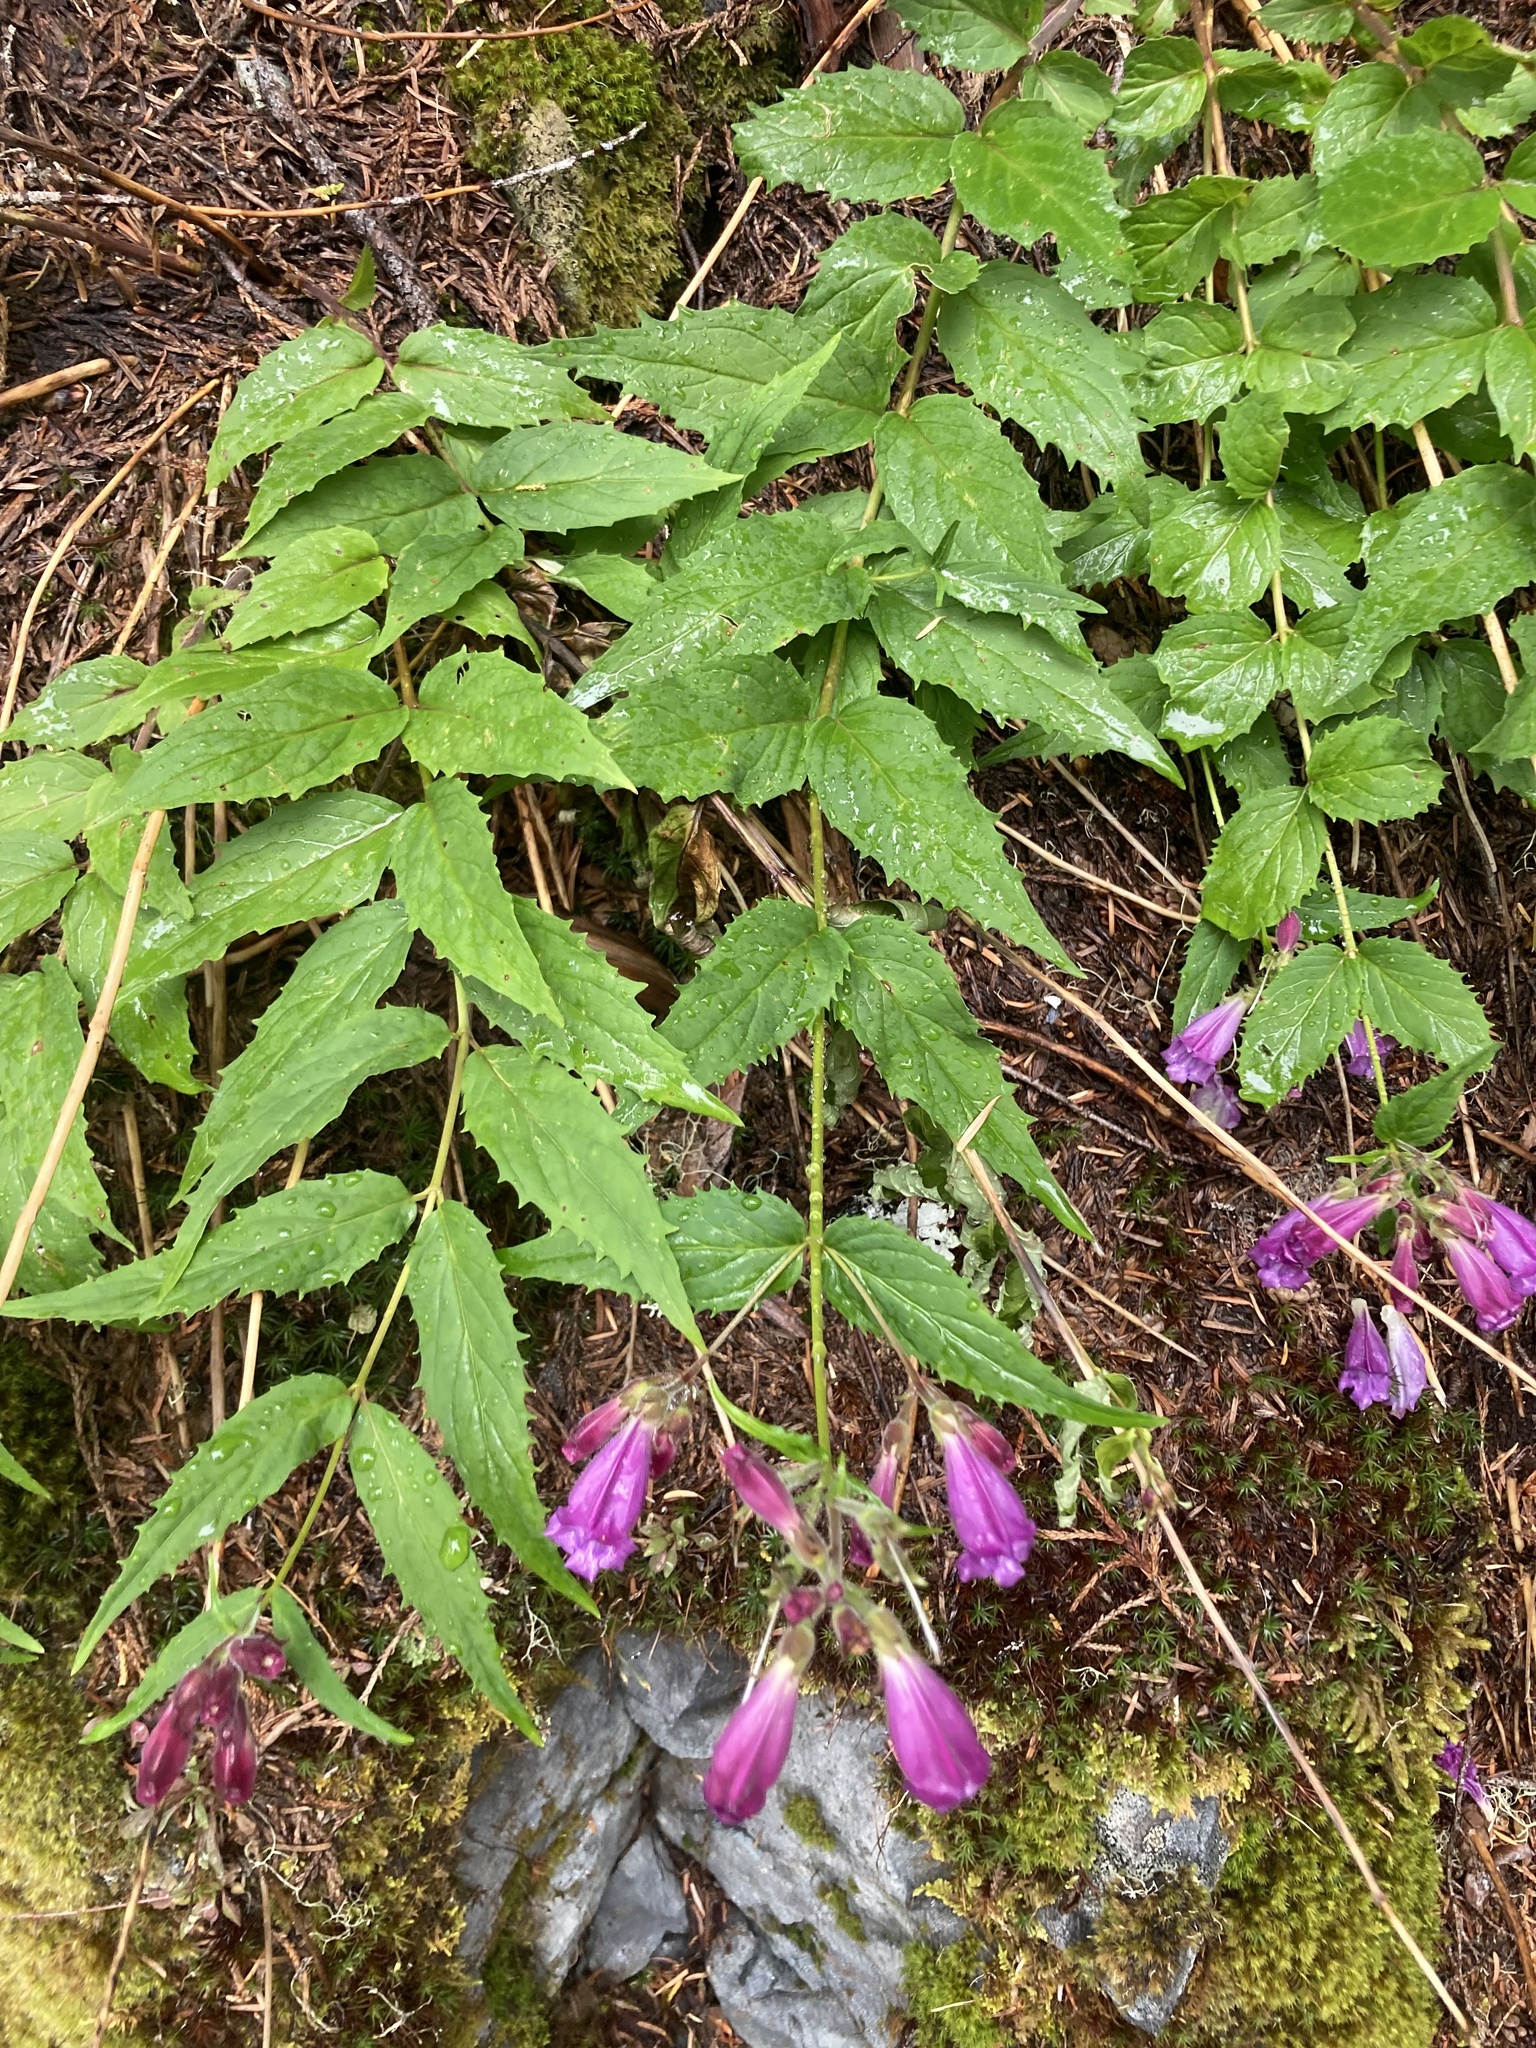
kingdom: Plantae
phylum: Tracheophyta
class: Magnoliopsida
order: Lamiales
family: Plantaginaceae
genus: Nothochelone
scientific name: Nothochelone nemorosa
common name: Woodland beardtongue
